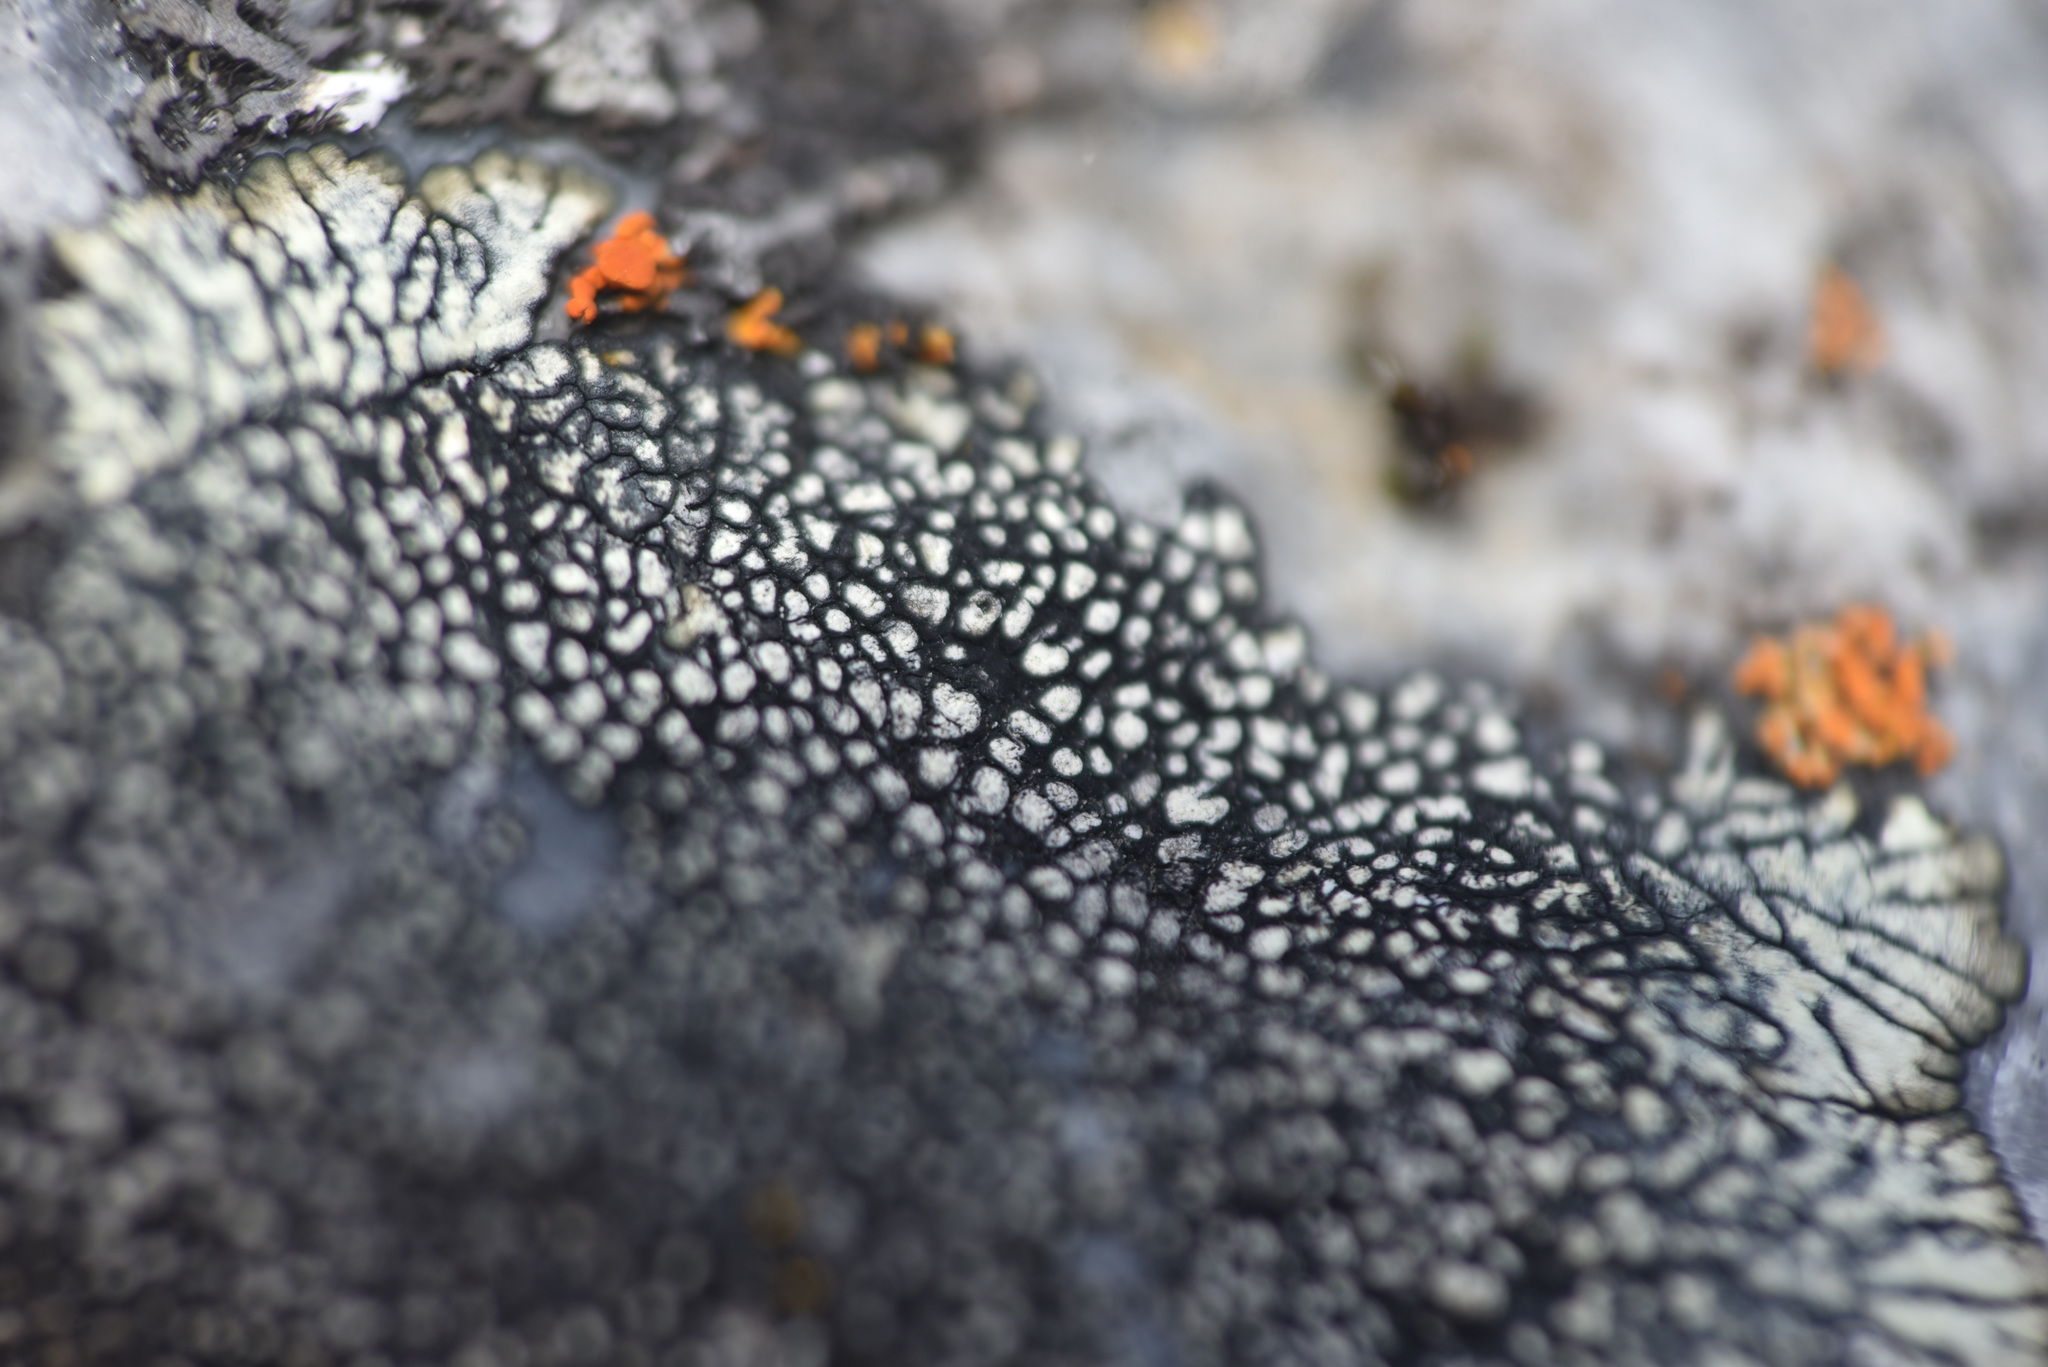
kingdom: Fungi
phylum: Ascomycota
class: Lecanoromycetes
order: Caliciales
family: Caliciaceae
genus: Dimelaena
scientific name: Dimelaena oreina
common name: Golden moonglow lichen
